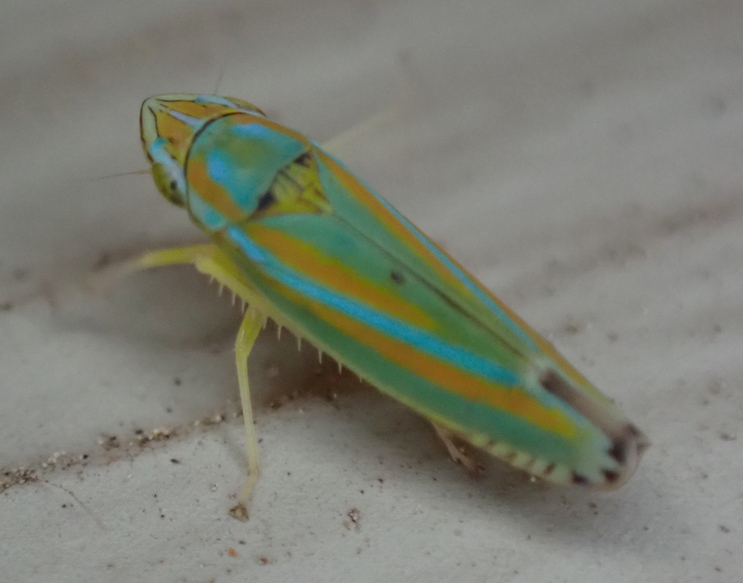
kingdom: Animalia
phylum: Arthropoda
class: Insecta
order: Hemiptera
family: Cicadellidae
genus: Graphocephala
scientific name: Graphocephala versuta
